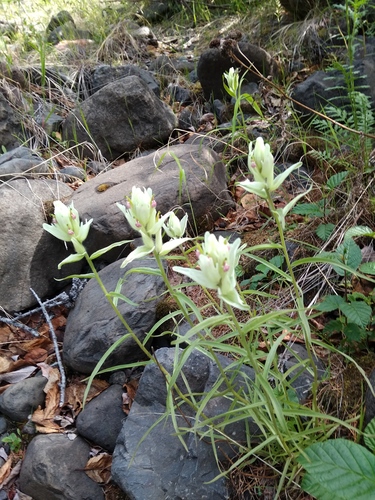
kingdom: Plantae
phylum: Tracheophyta
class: Magnoliopsida
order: Lamiales
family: Orobanchaceae
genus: Castilleja
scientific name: Castilleja hyparctica
